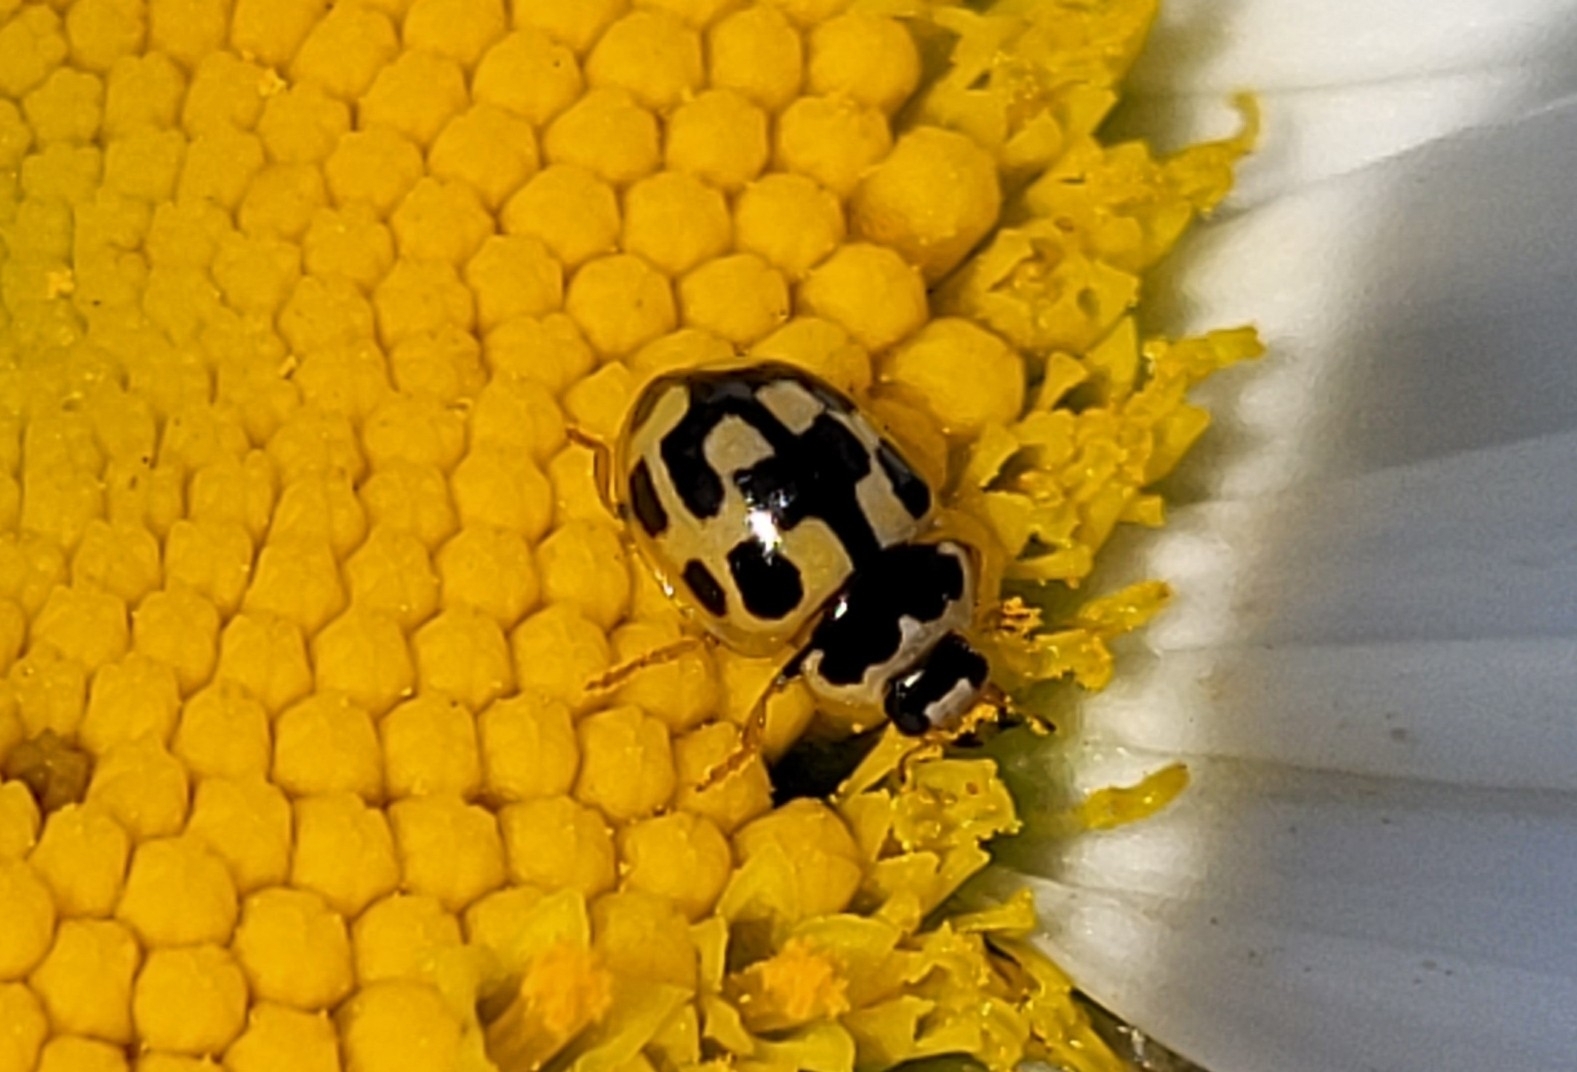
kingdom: Animalia
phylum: Arthropoda
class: Insecta
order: Coleoptera
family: Coccinellidae
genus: Propylaea
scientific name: Propylaea quatuordecimpunctata
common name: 14-spotted ladybird beetle
